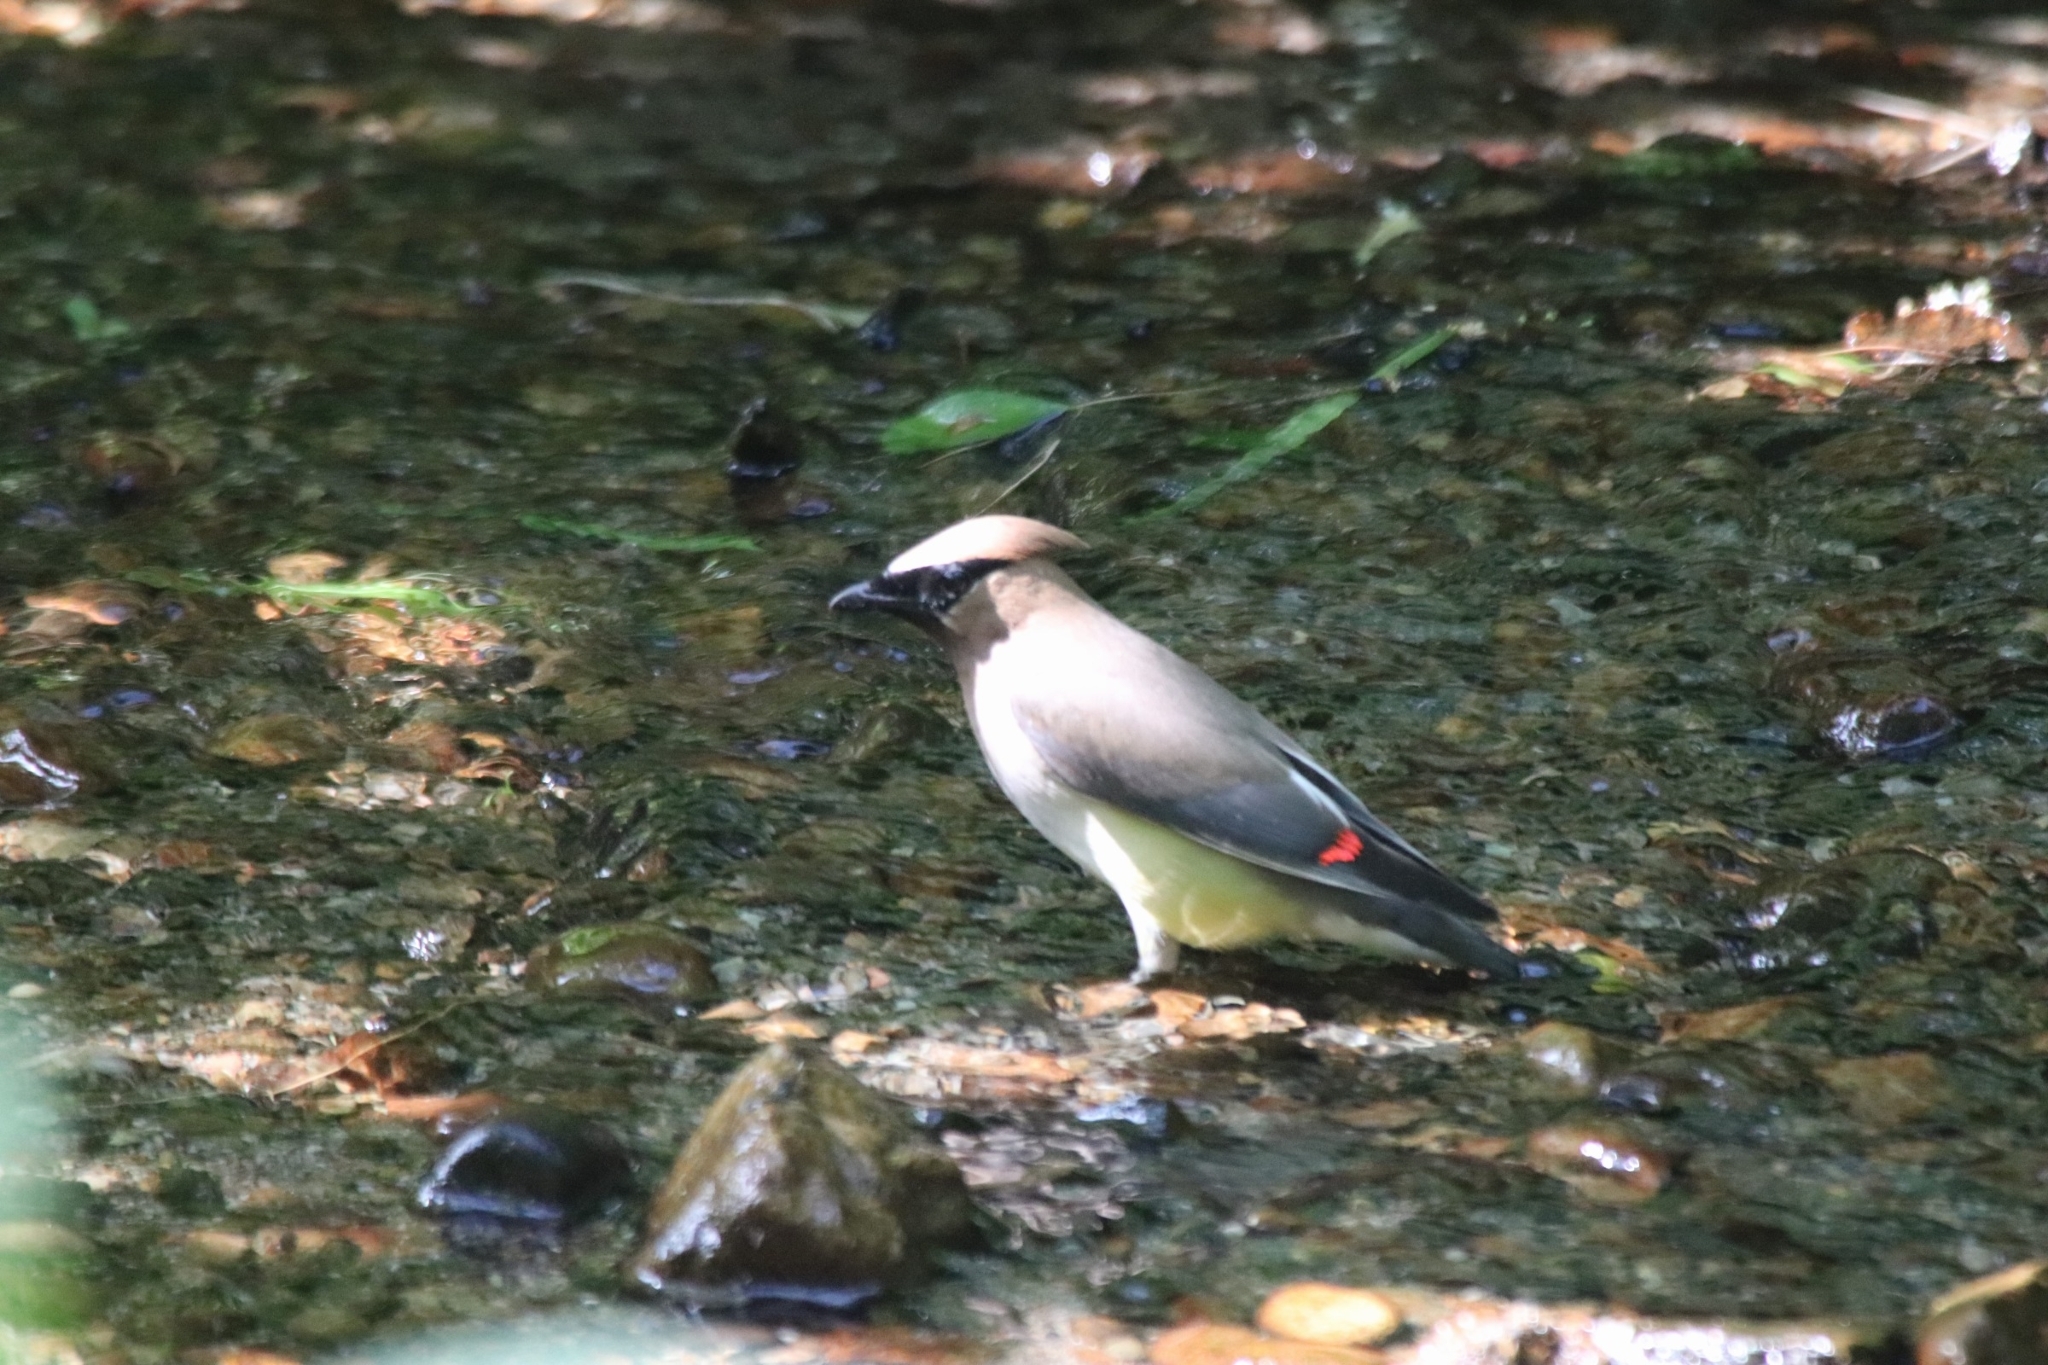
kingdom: Animalia
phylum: Chordata
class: Aves
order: Passeriformes
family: Bombycillidae
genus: Bombycilla
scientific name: Bombycilla cedrorum
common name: Cedar waxwing
